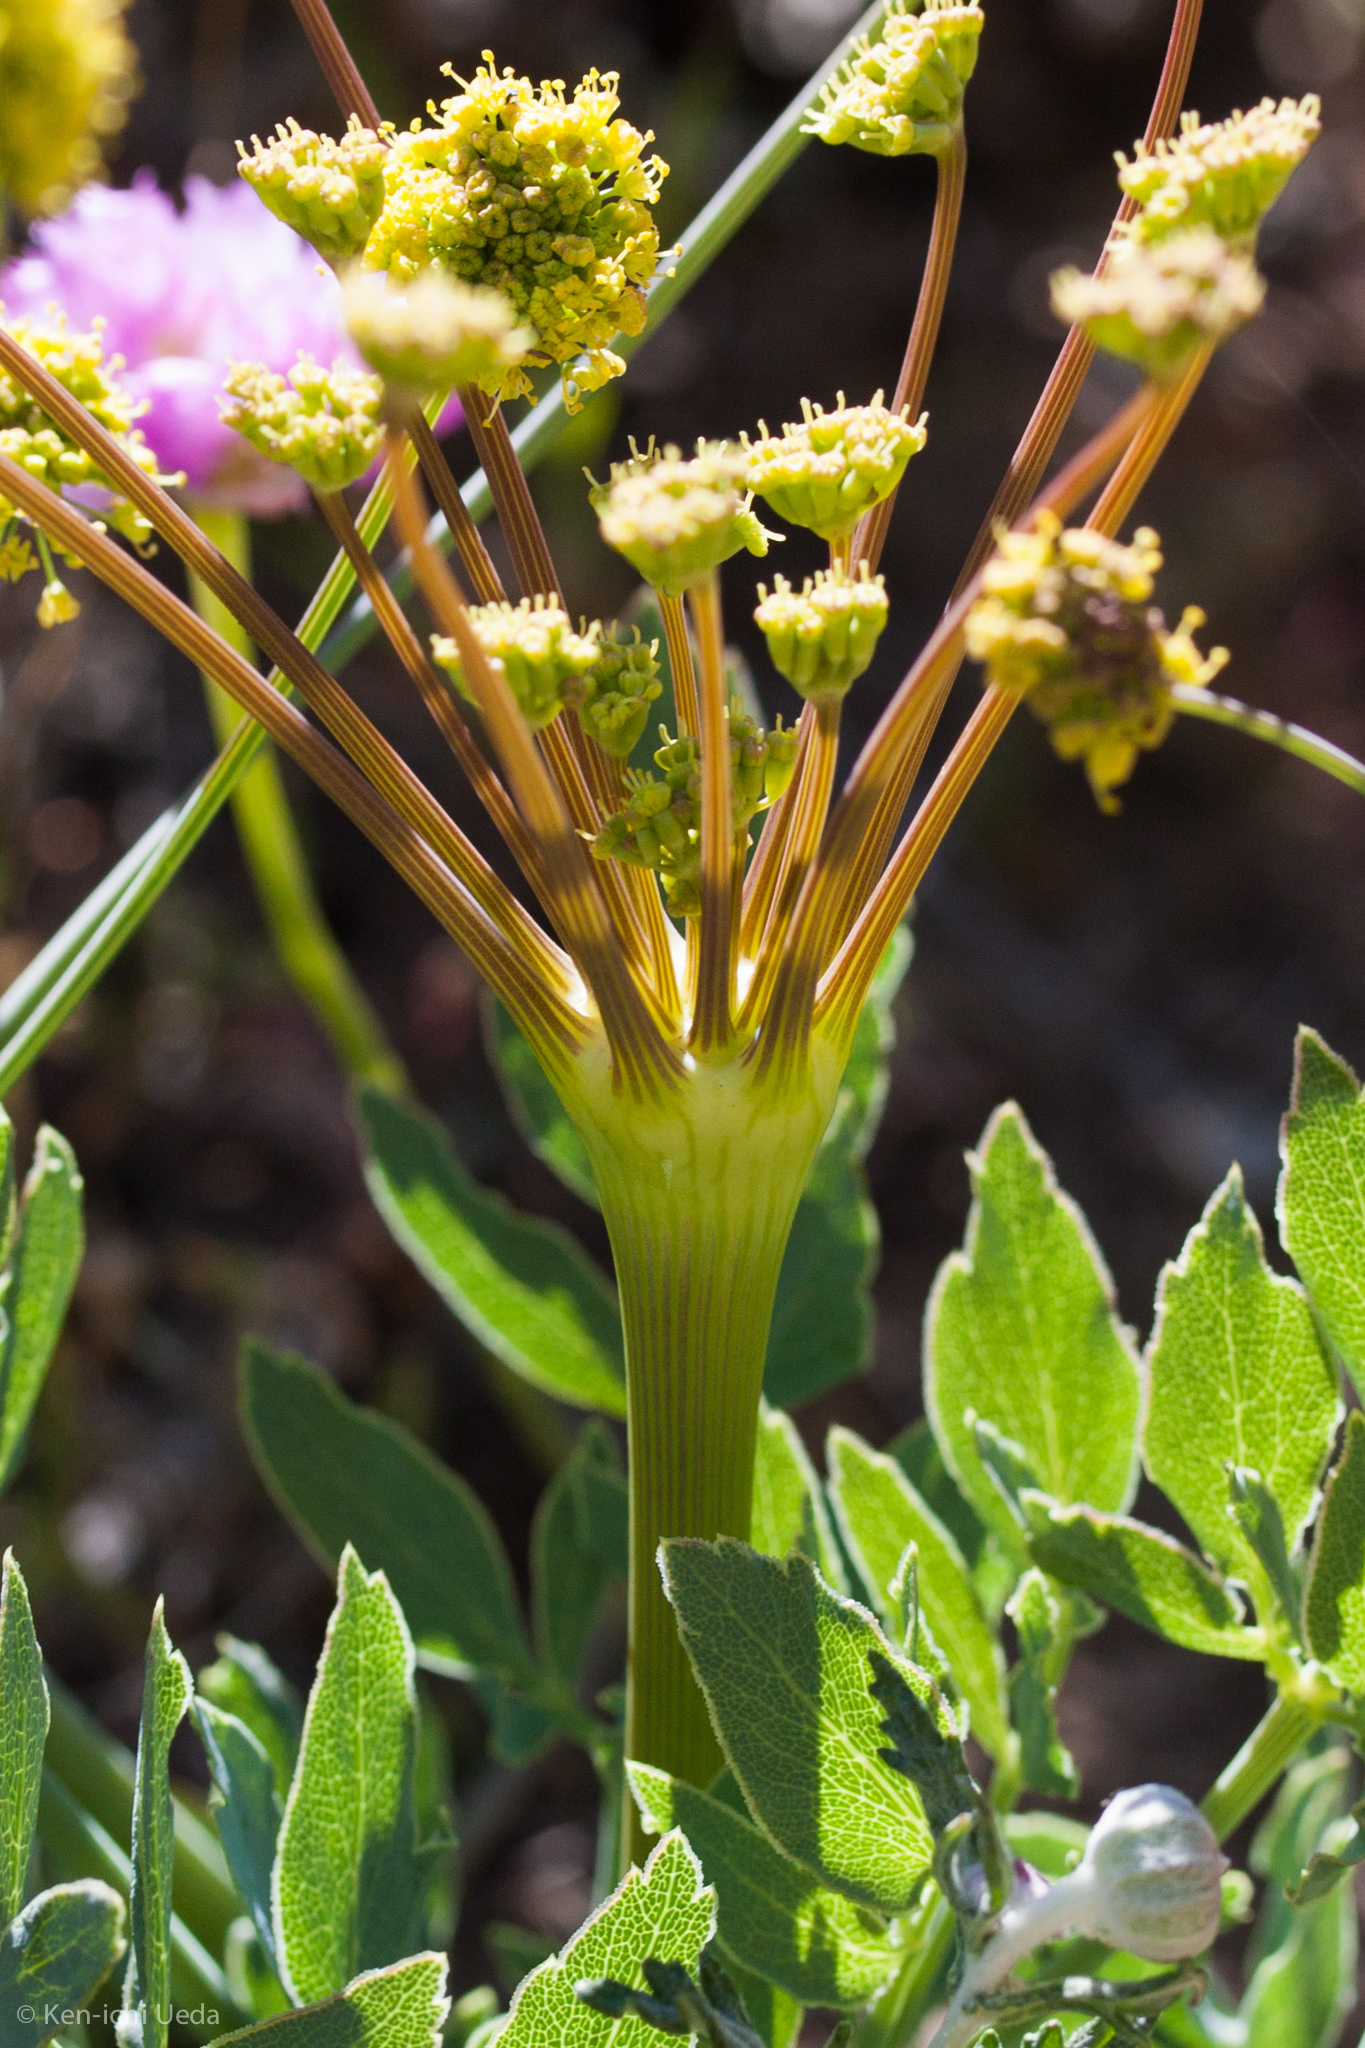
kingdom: Plantae
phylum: Tracheophyta
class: Magnoliopsida
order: Apiales
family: Apiaceae
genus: Lomatium
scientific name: Lomatium nudicaule
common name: Pestle lomatium
